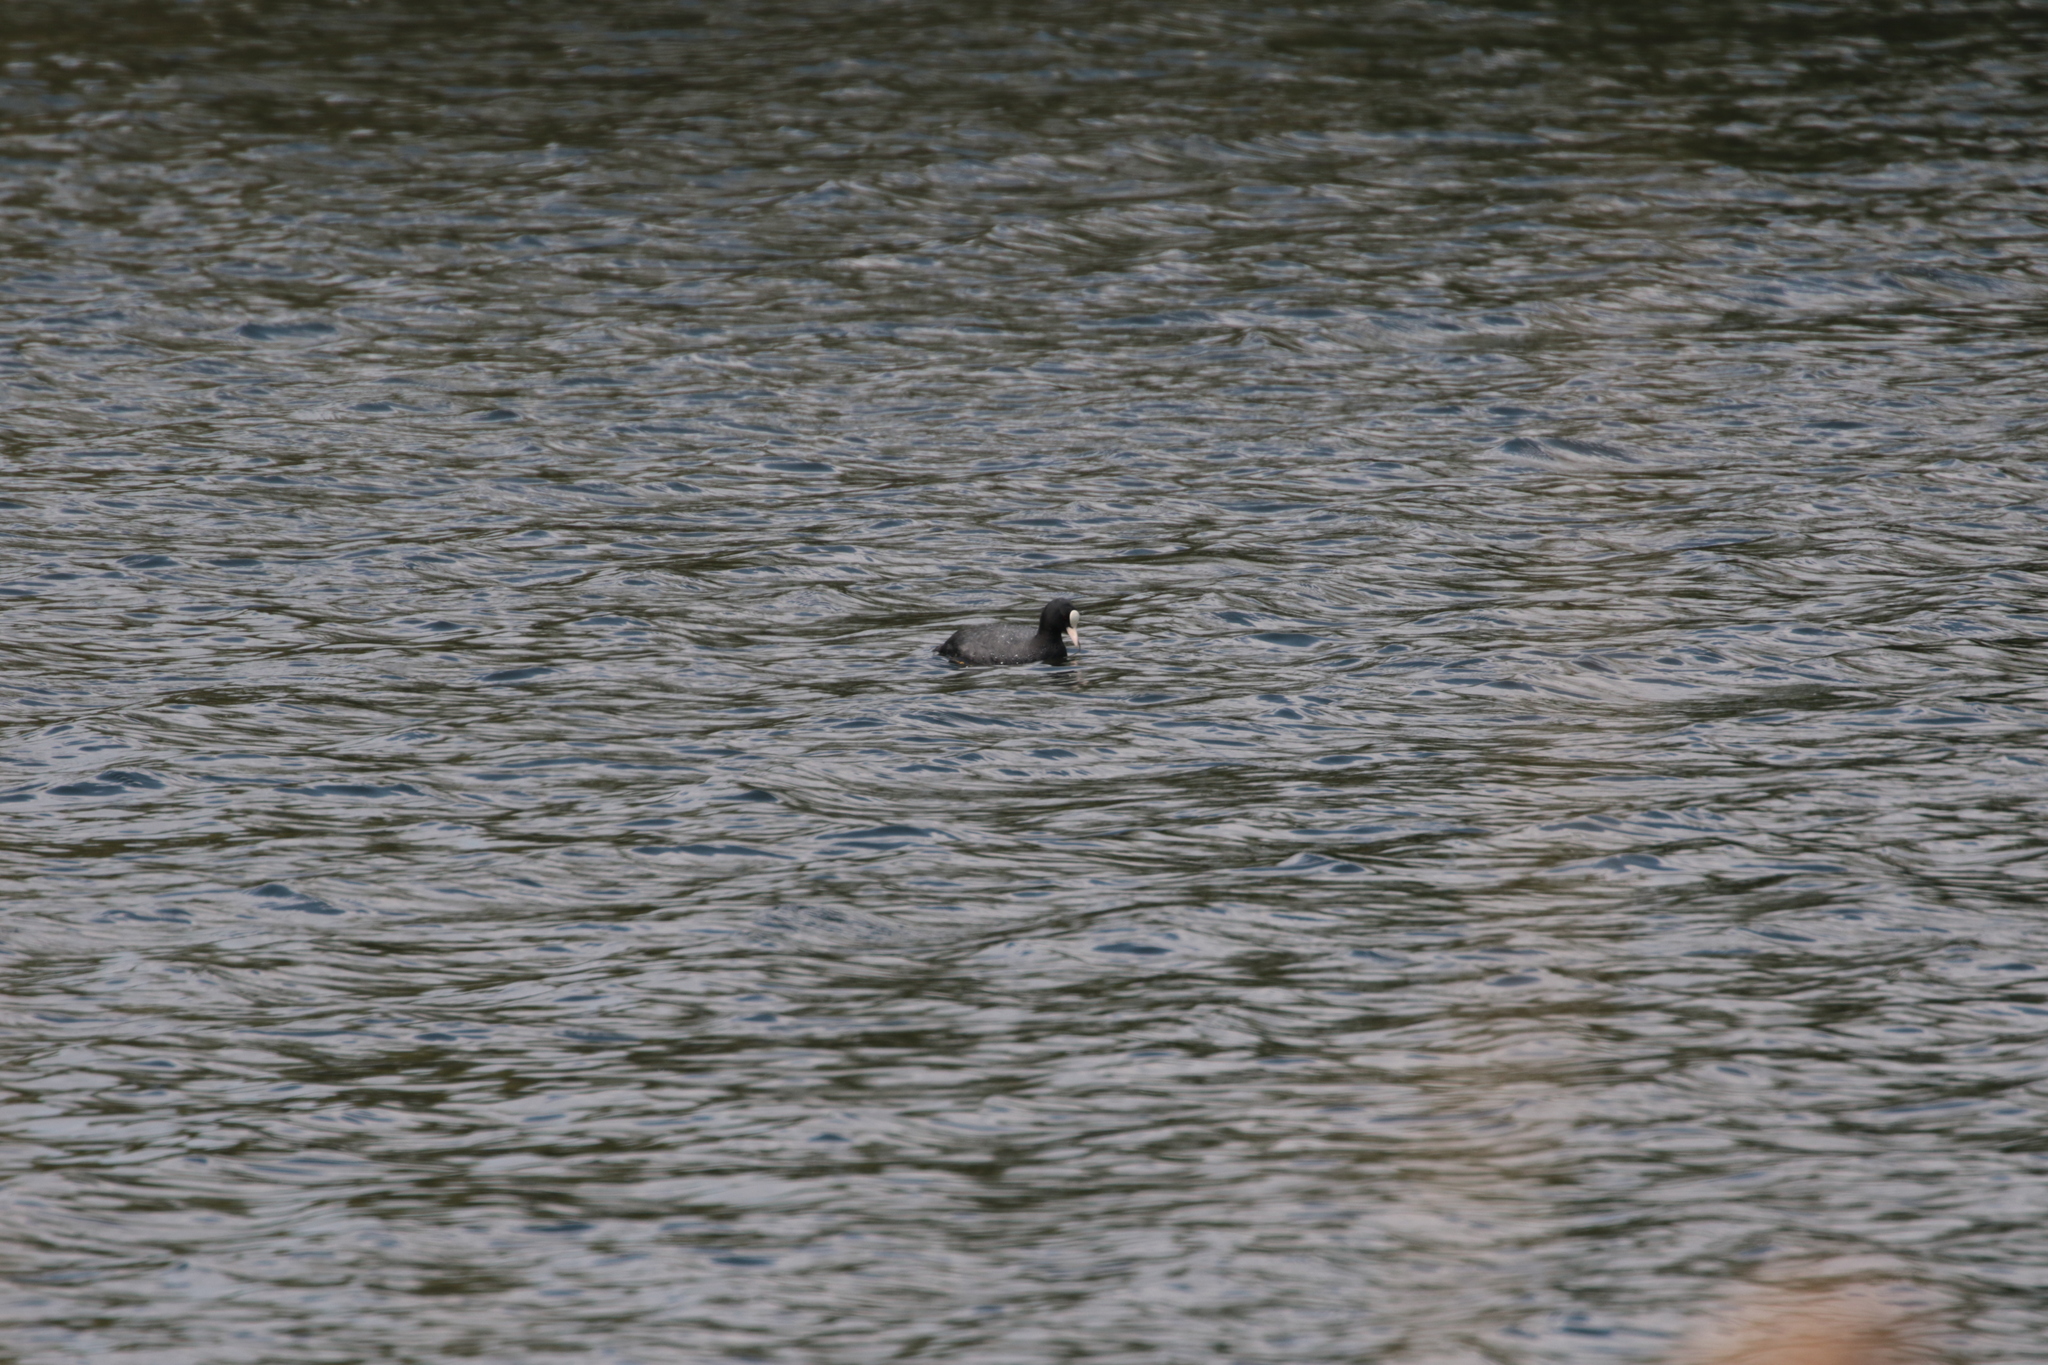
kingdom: Animalia
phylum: Chordata
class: Aves
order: Gruiformes
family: Rallidae
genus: Fulica
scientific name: Fulica atra
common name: Eurasian coot
